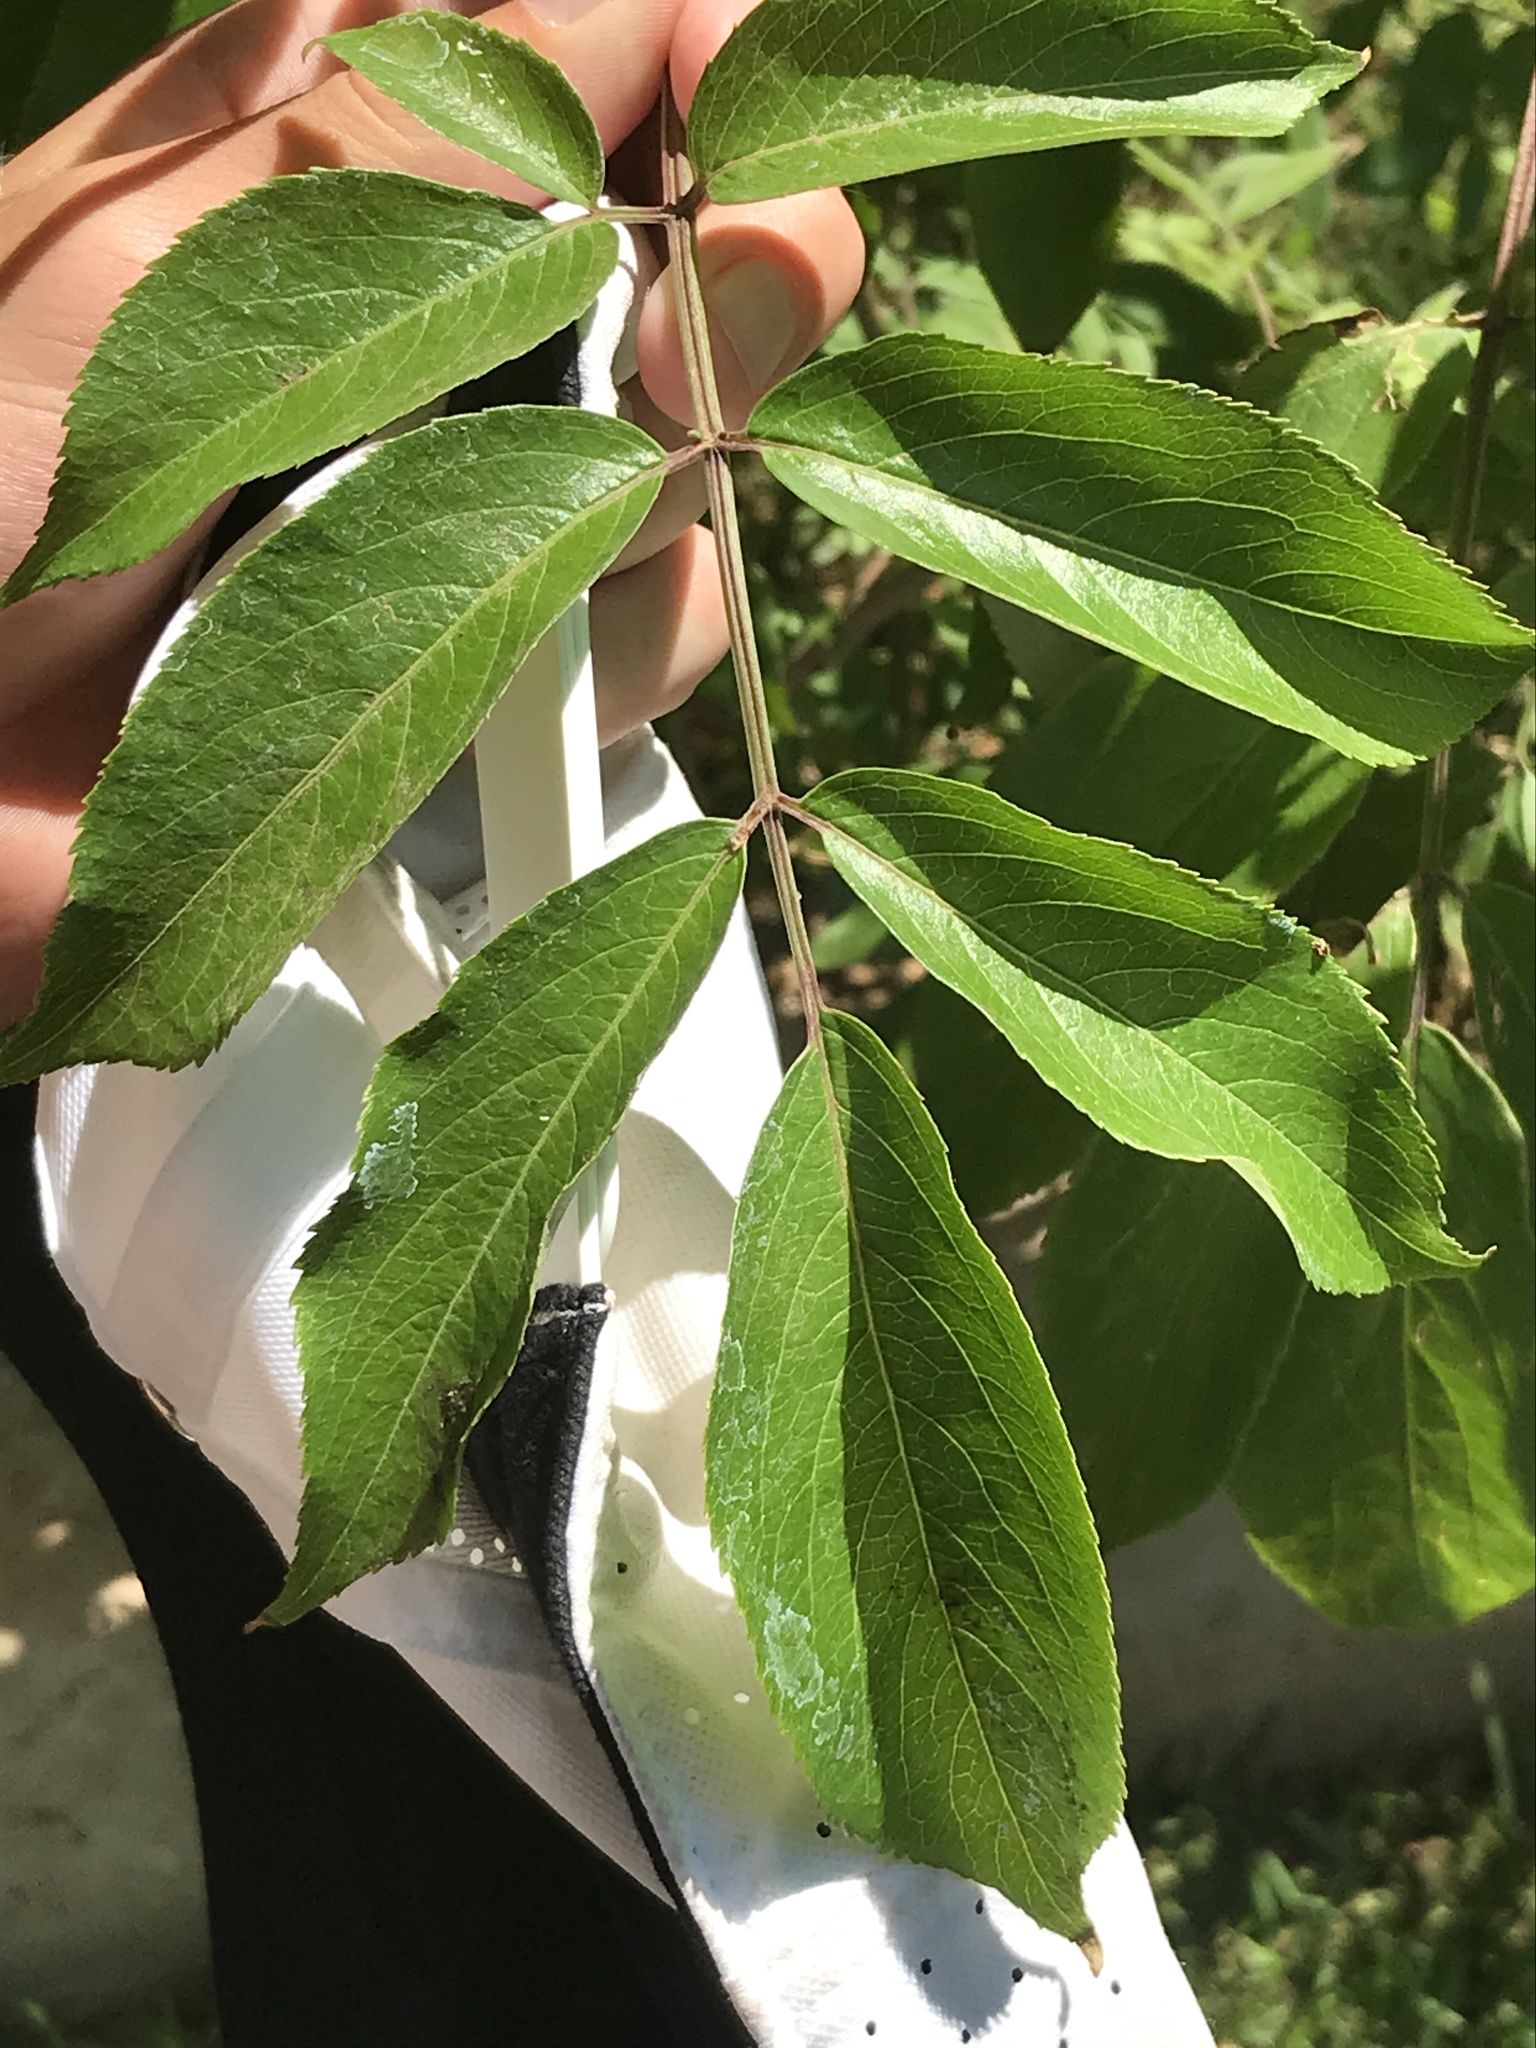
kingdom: Plantae
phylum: Tracheophyta
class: Magnoliopsida
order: Dipsacales
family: Viburnaceae
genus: Sambucus
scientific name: Sambucus canadensis
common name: American elder
